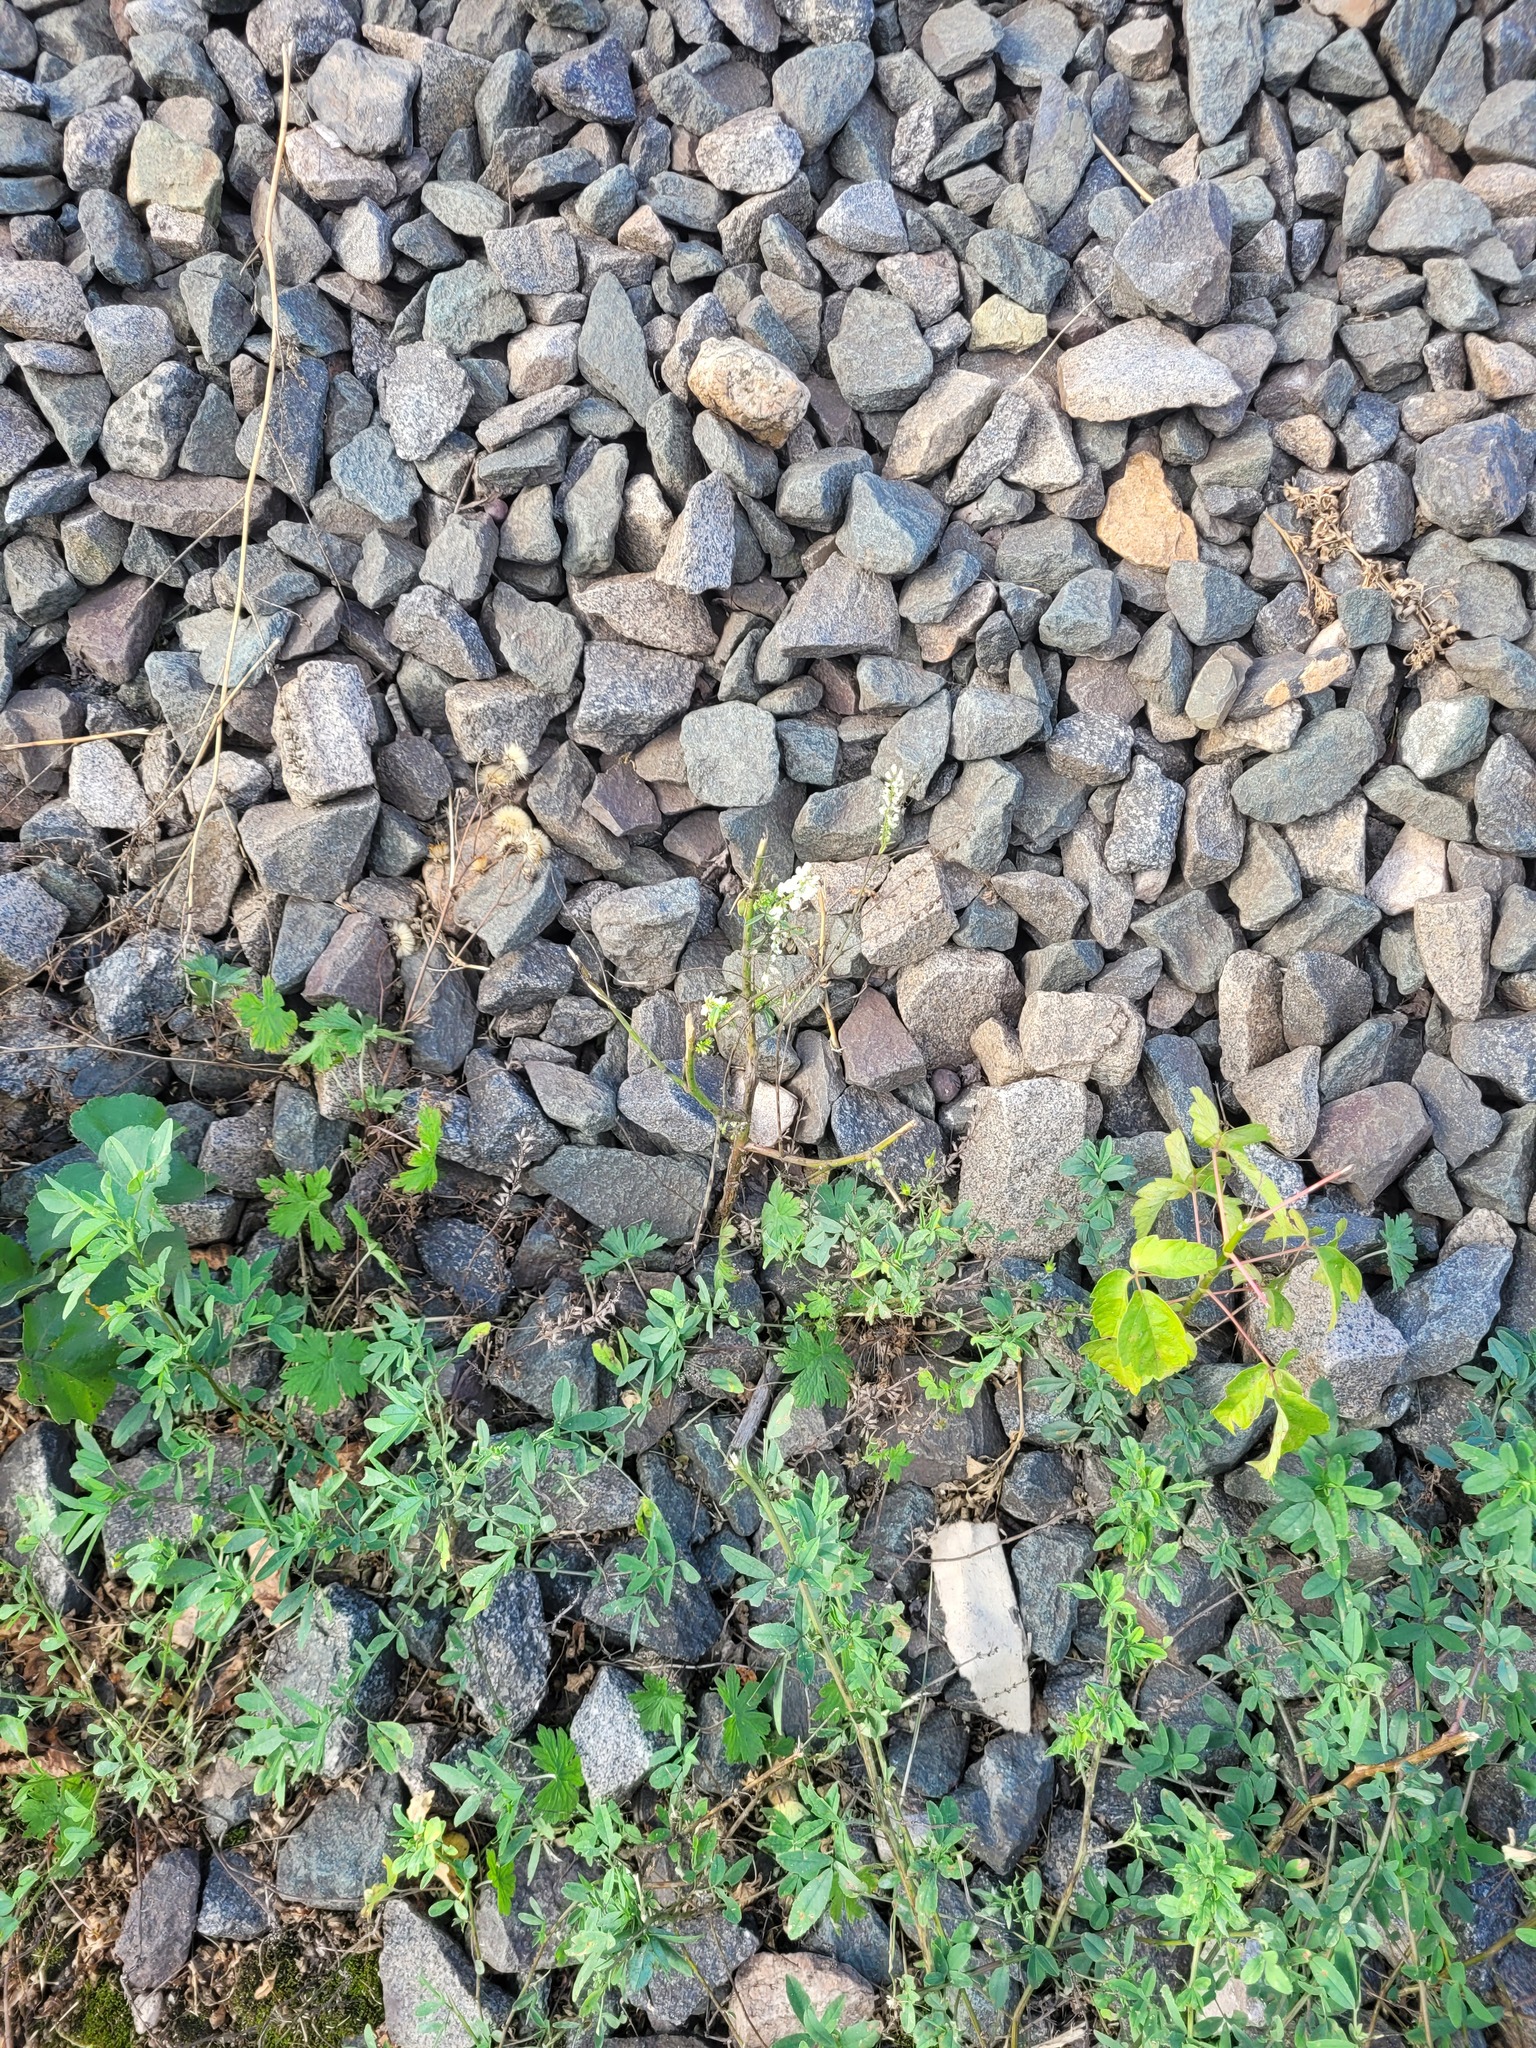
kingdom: Plantae
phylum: Tracheophyta
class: Magnoliopsida
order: Fabales
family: Fabaceae
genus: Melilotus
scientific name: Melilotus albus
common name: White melilot
